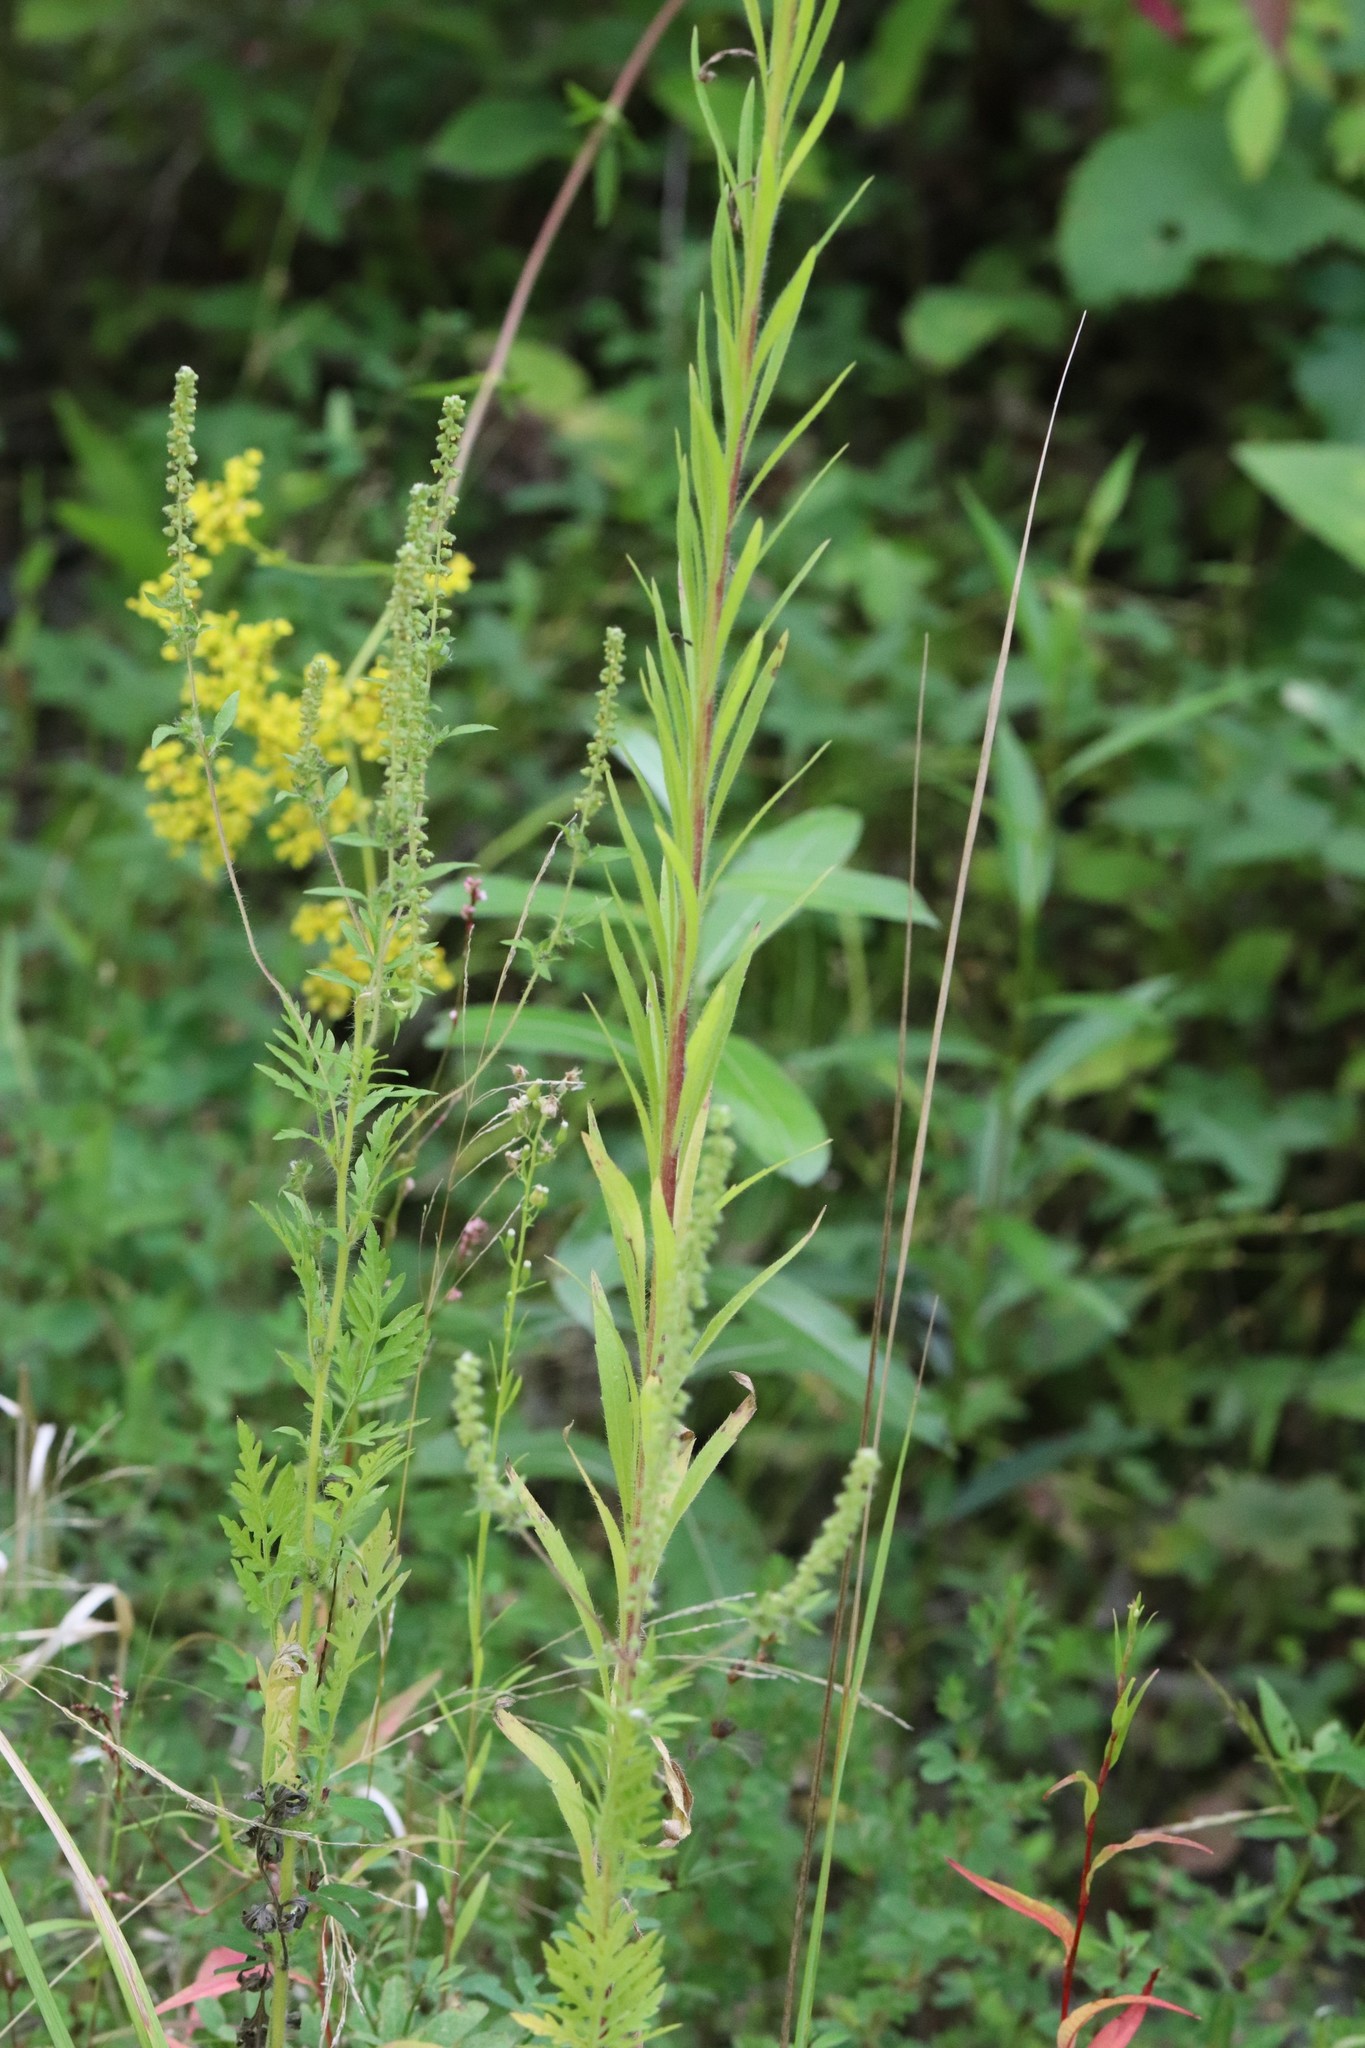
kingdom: Plantae
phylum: Tracheophyta
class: Magnoliopsida
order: Asterales
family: Asteraceae
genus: Erigeron
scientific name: Erigeron canadensis
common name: Canadian fleabane
